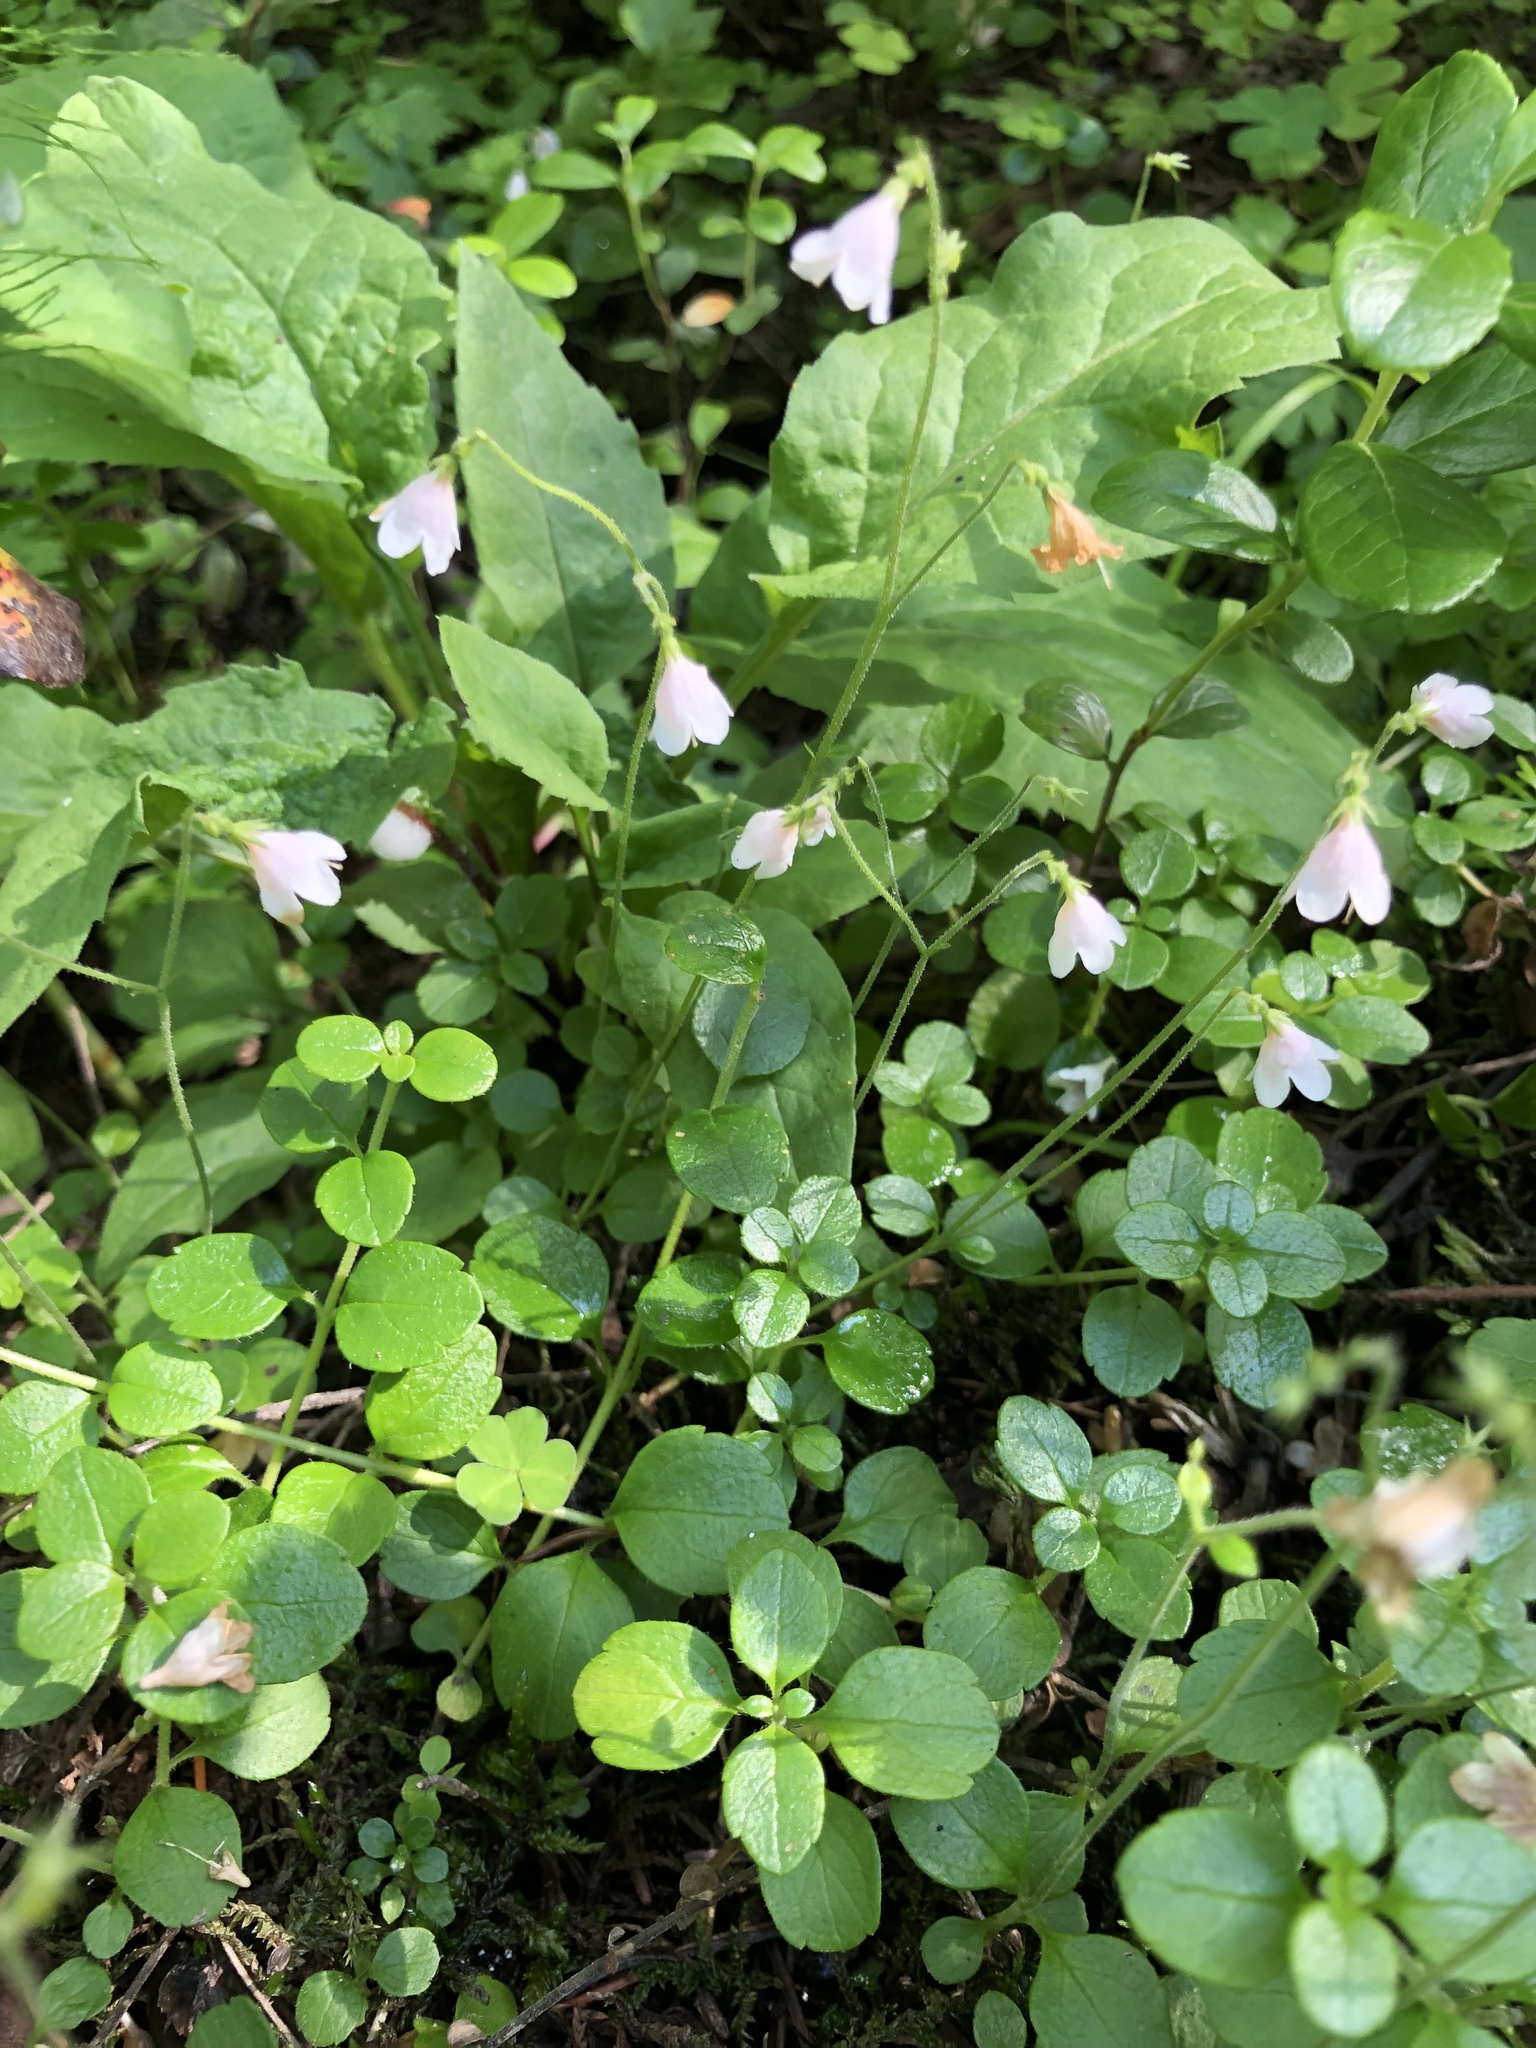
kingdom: Plantae
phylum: Tracheophyta
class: Magnoliopsida
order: Dipsacales
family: Caprifoliaceae
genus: Linnaea
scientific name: Linnaea borealis
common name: Twinflower
